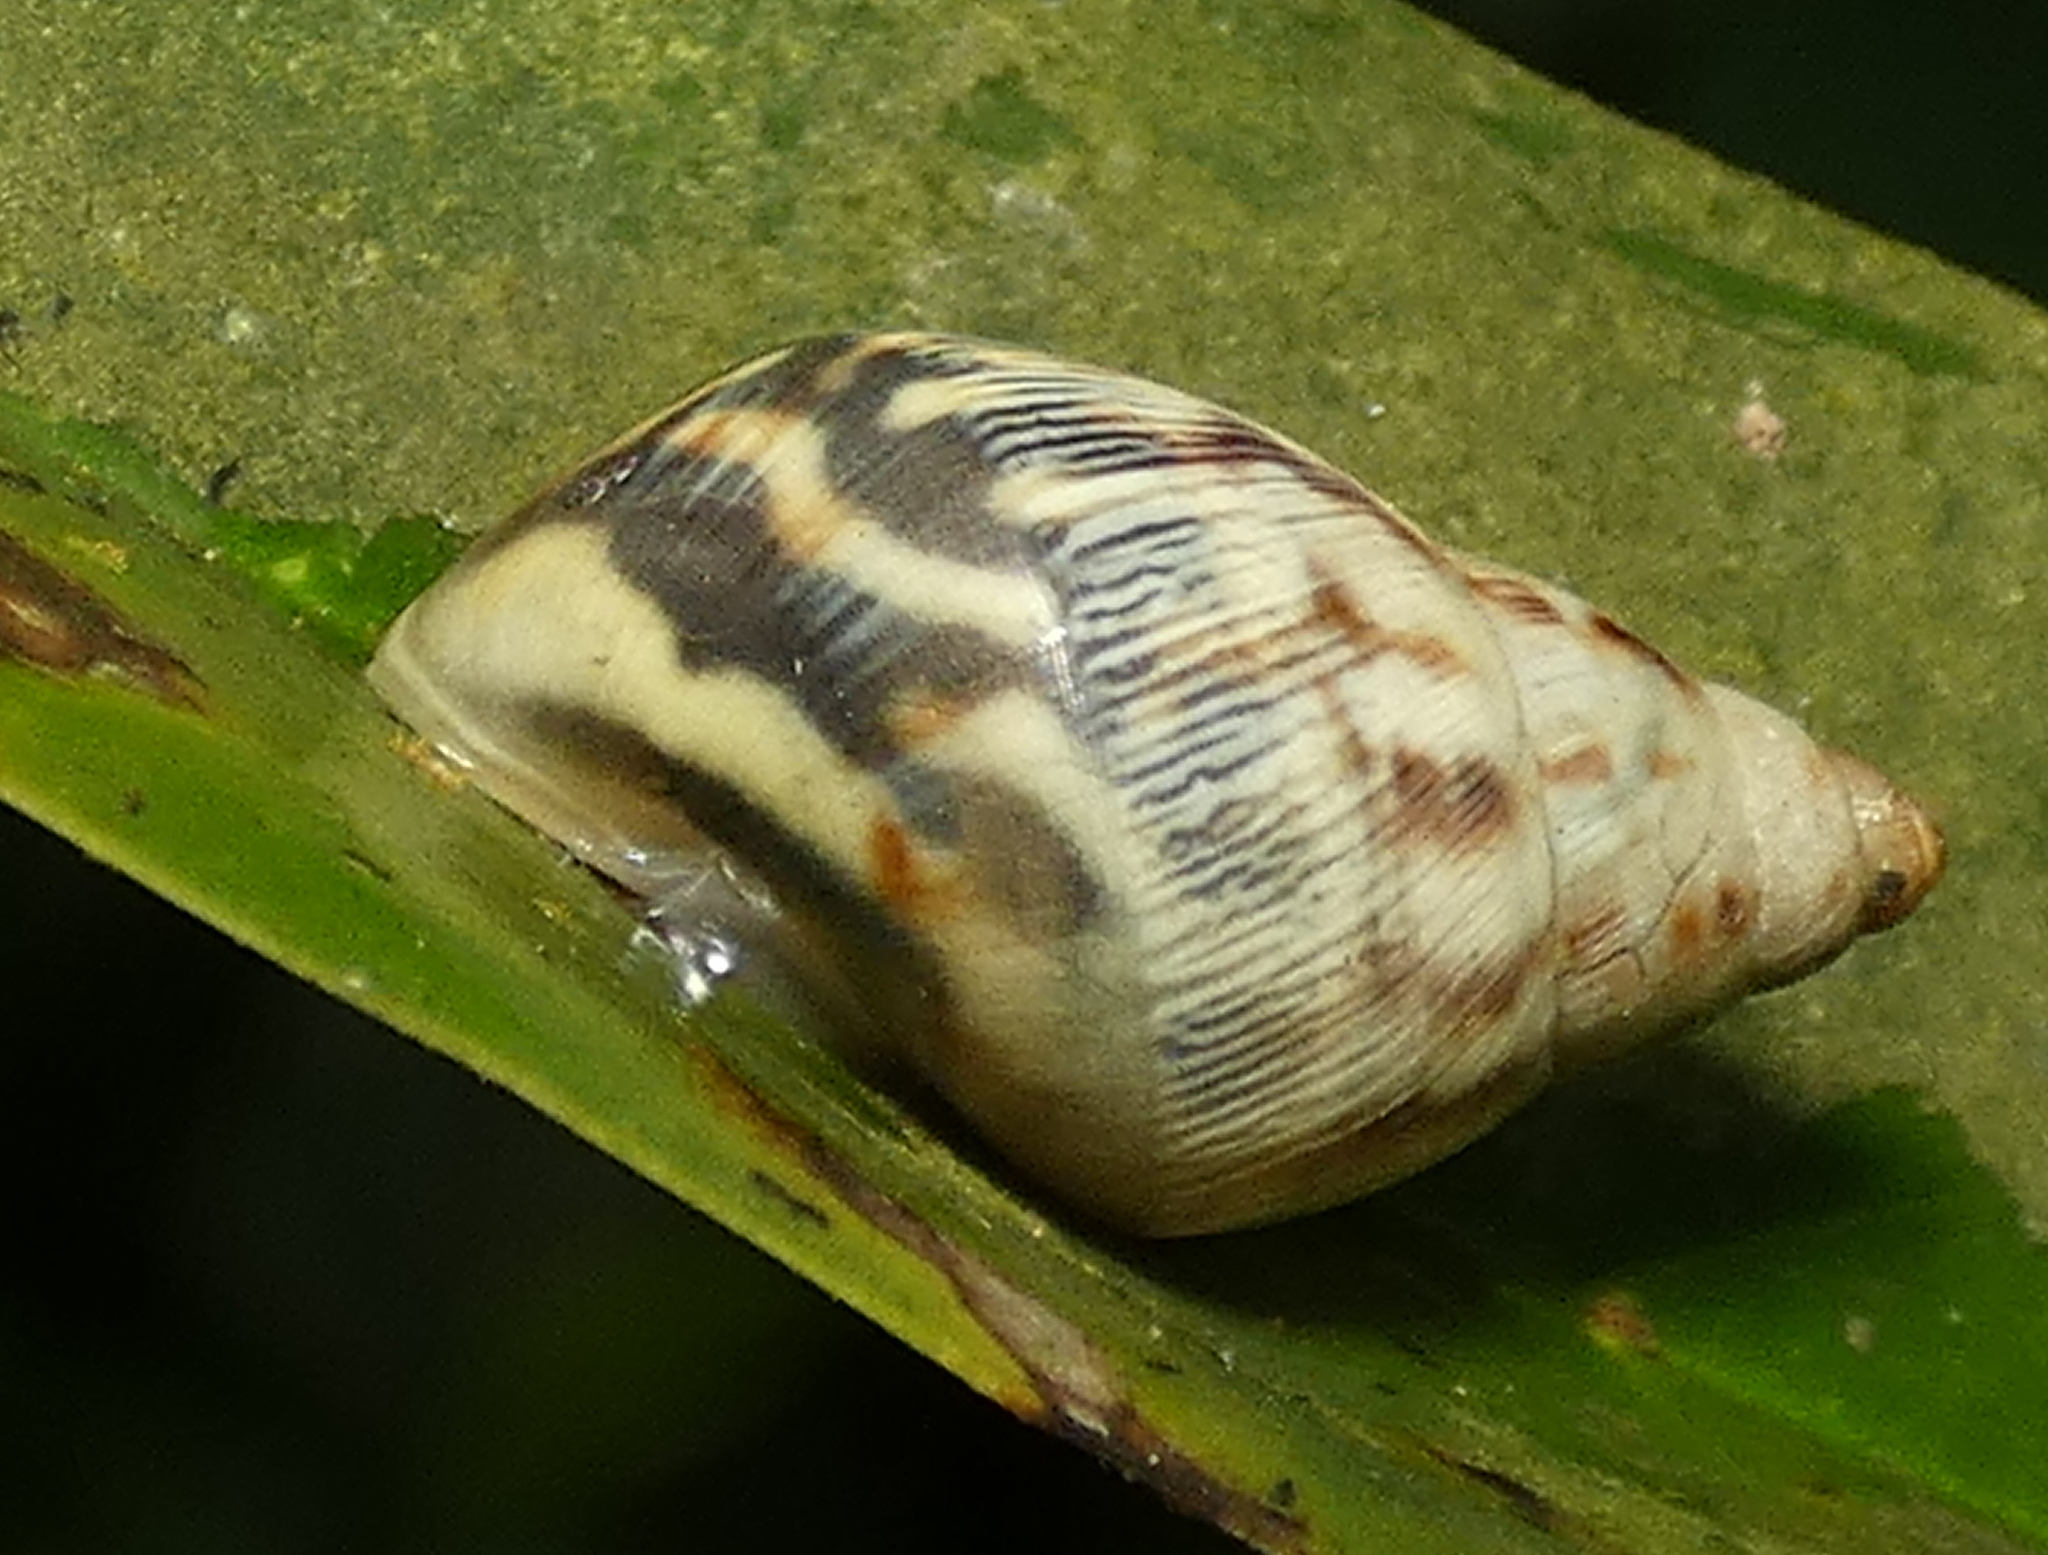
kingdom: Animalia
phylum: Mollusca
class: Gastropoda
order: Stylommatophora
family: Bulimulidae
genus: Drymaeus
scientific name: Drymaeus papyraceus
